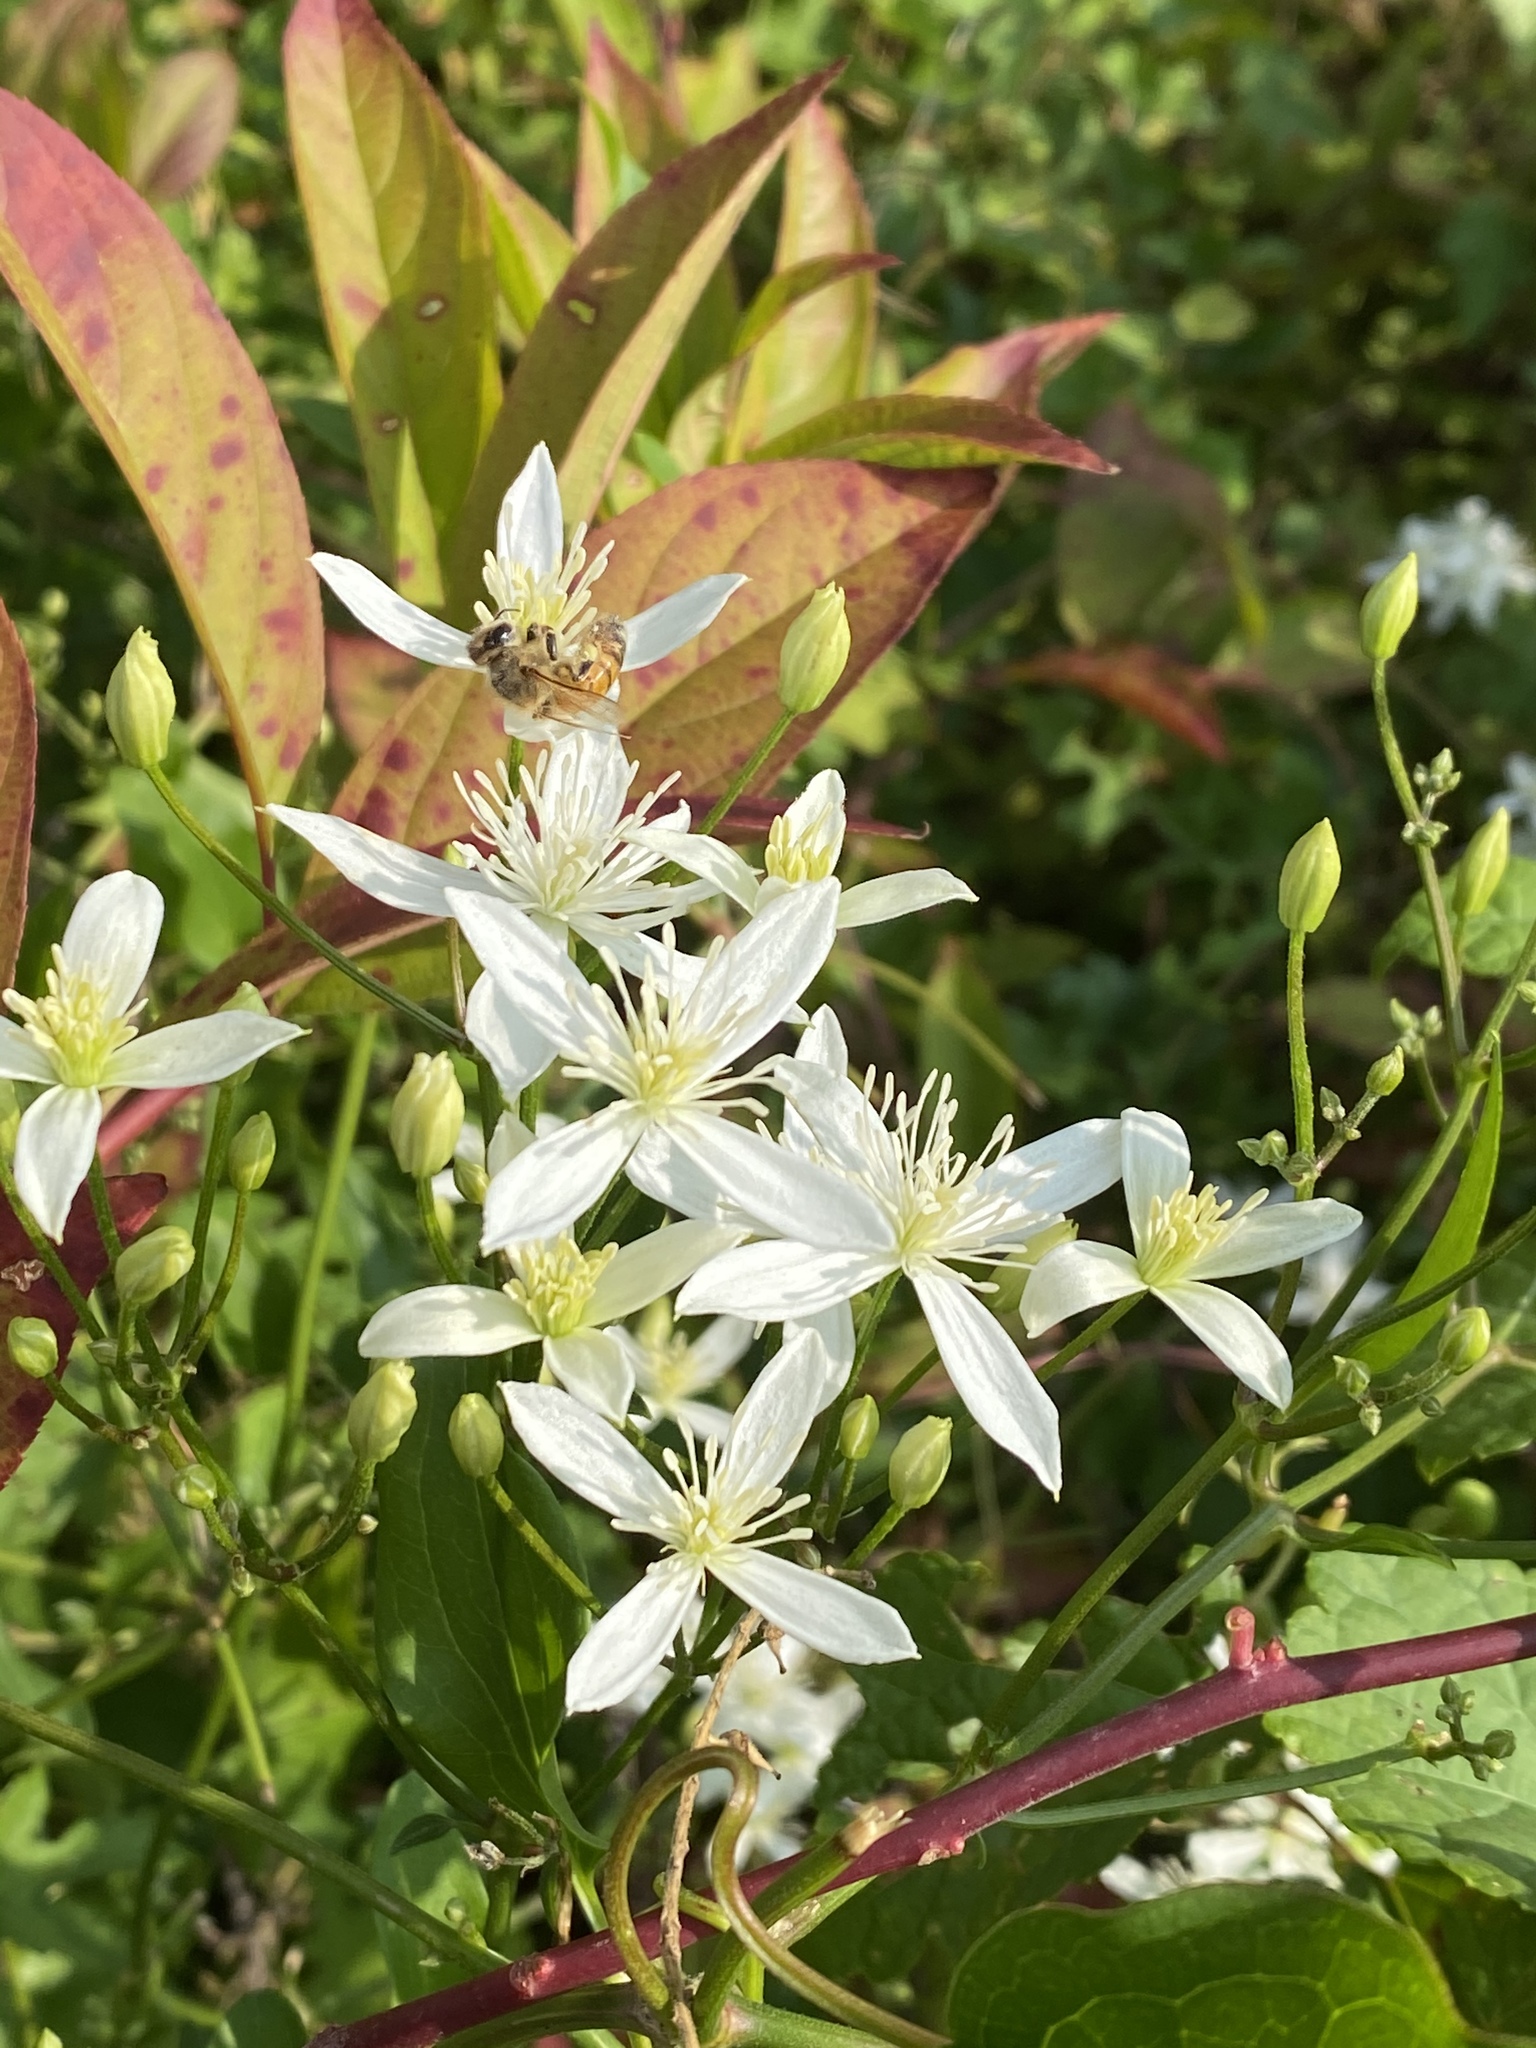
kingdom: Plantae
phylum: Tracheophyta
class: Magnoliopsida
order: Ranunculales
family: Ranunculaceae
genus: Clematis
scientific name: Clematis terniflora
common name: Sweet autumn clematis
